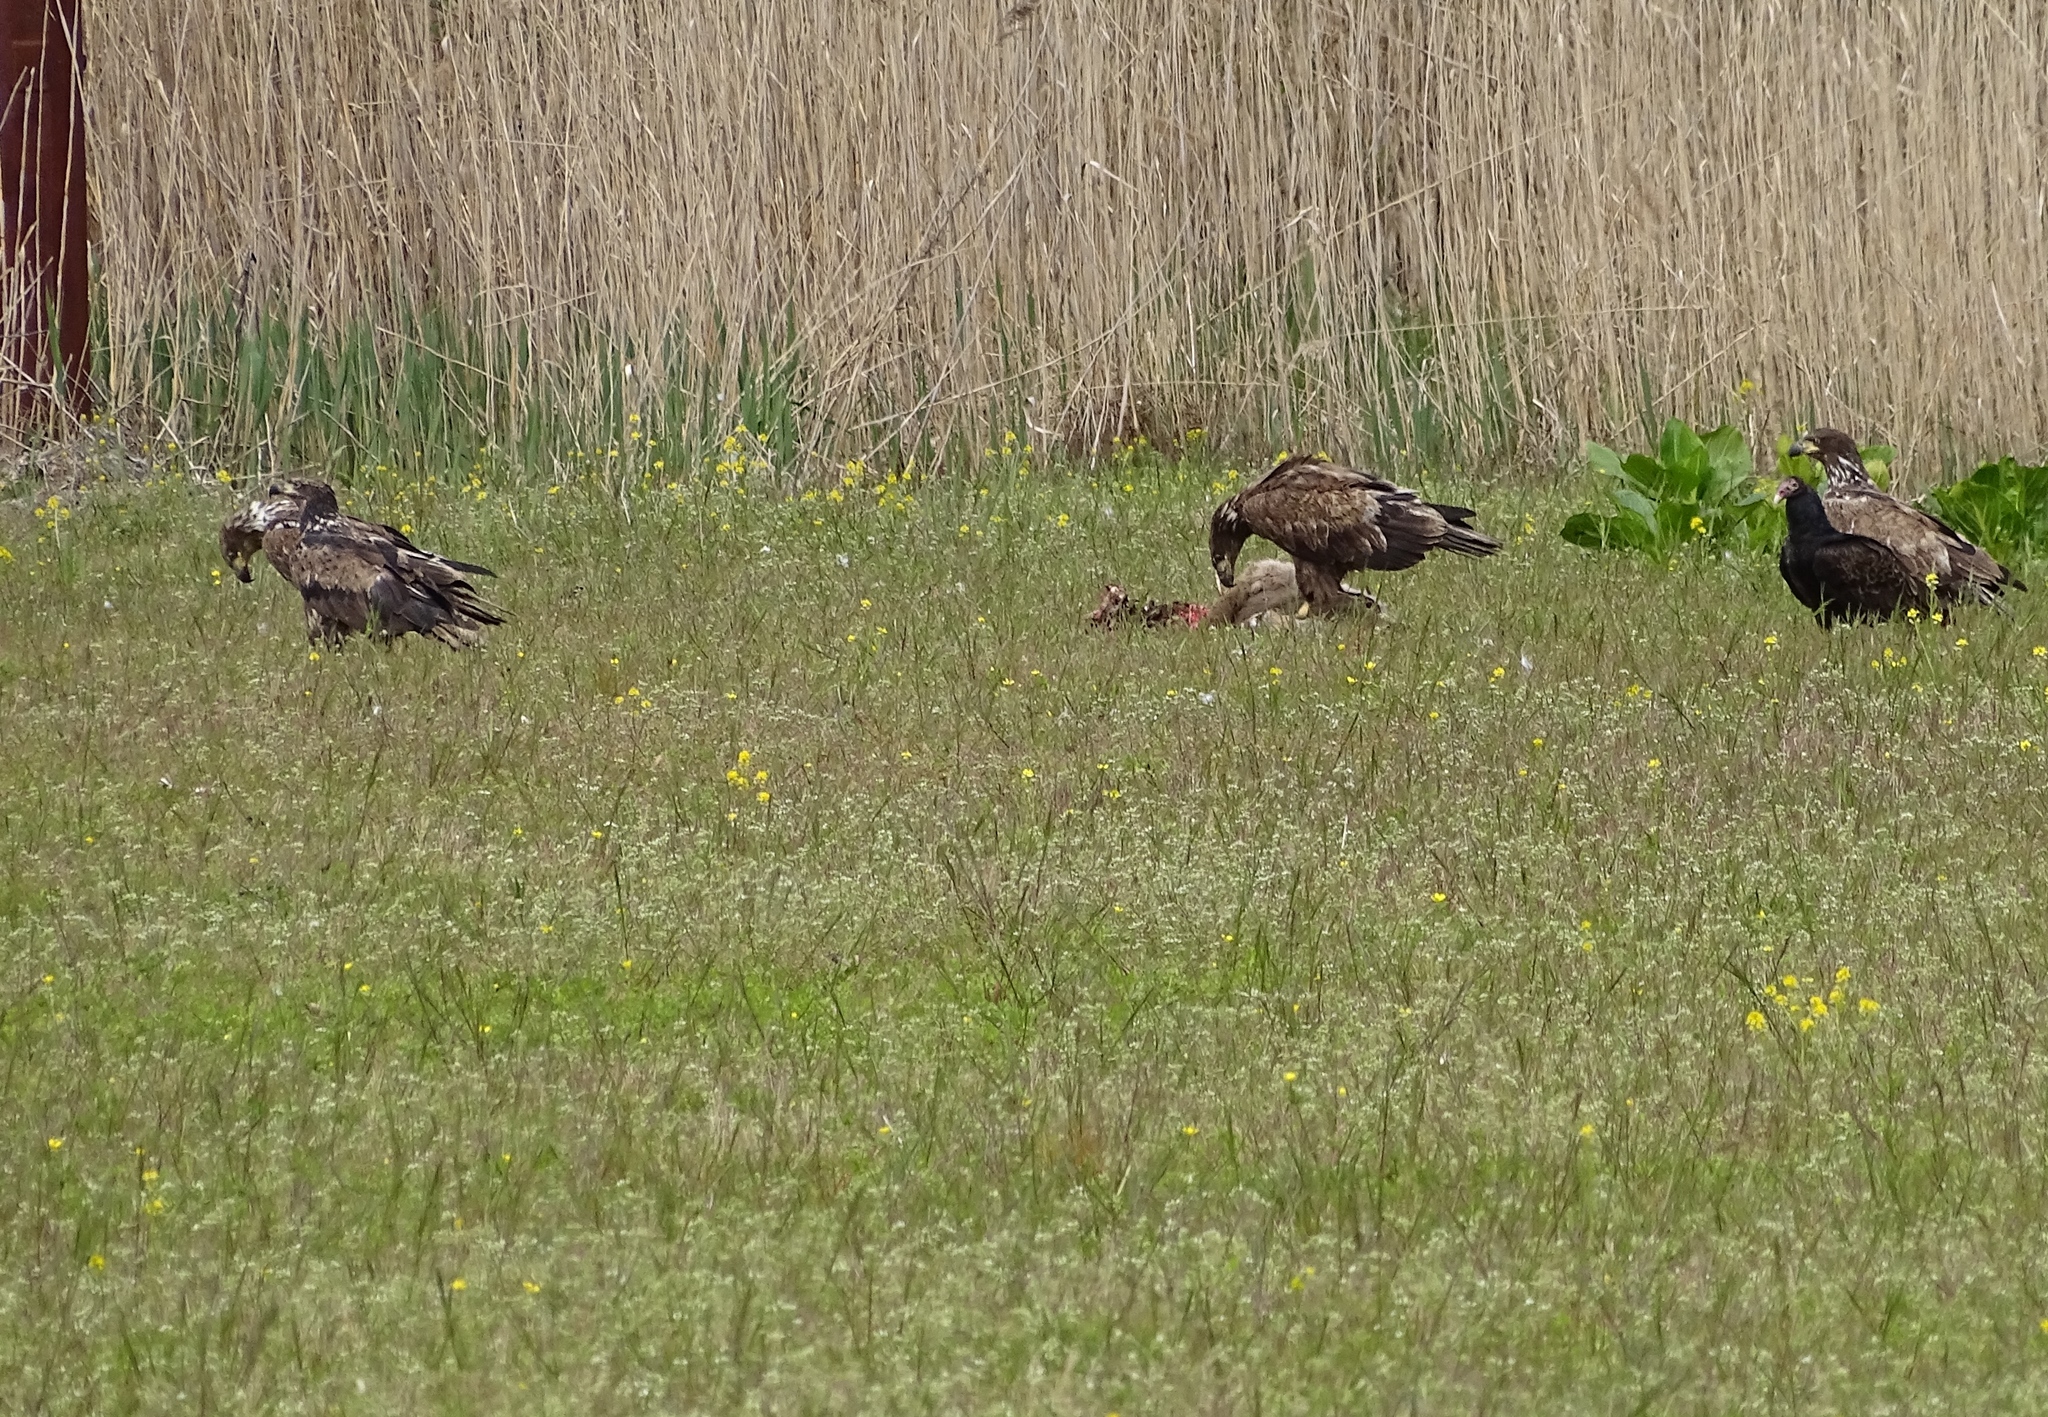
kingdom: Animalia
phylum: Chordata
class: Aves
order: Accipitriformes
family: Accipitridae
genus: Haliaeetus
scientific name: Haliaeetus leucocephalus
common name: Bald eagle
